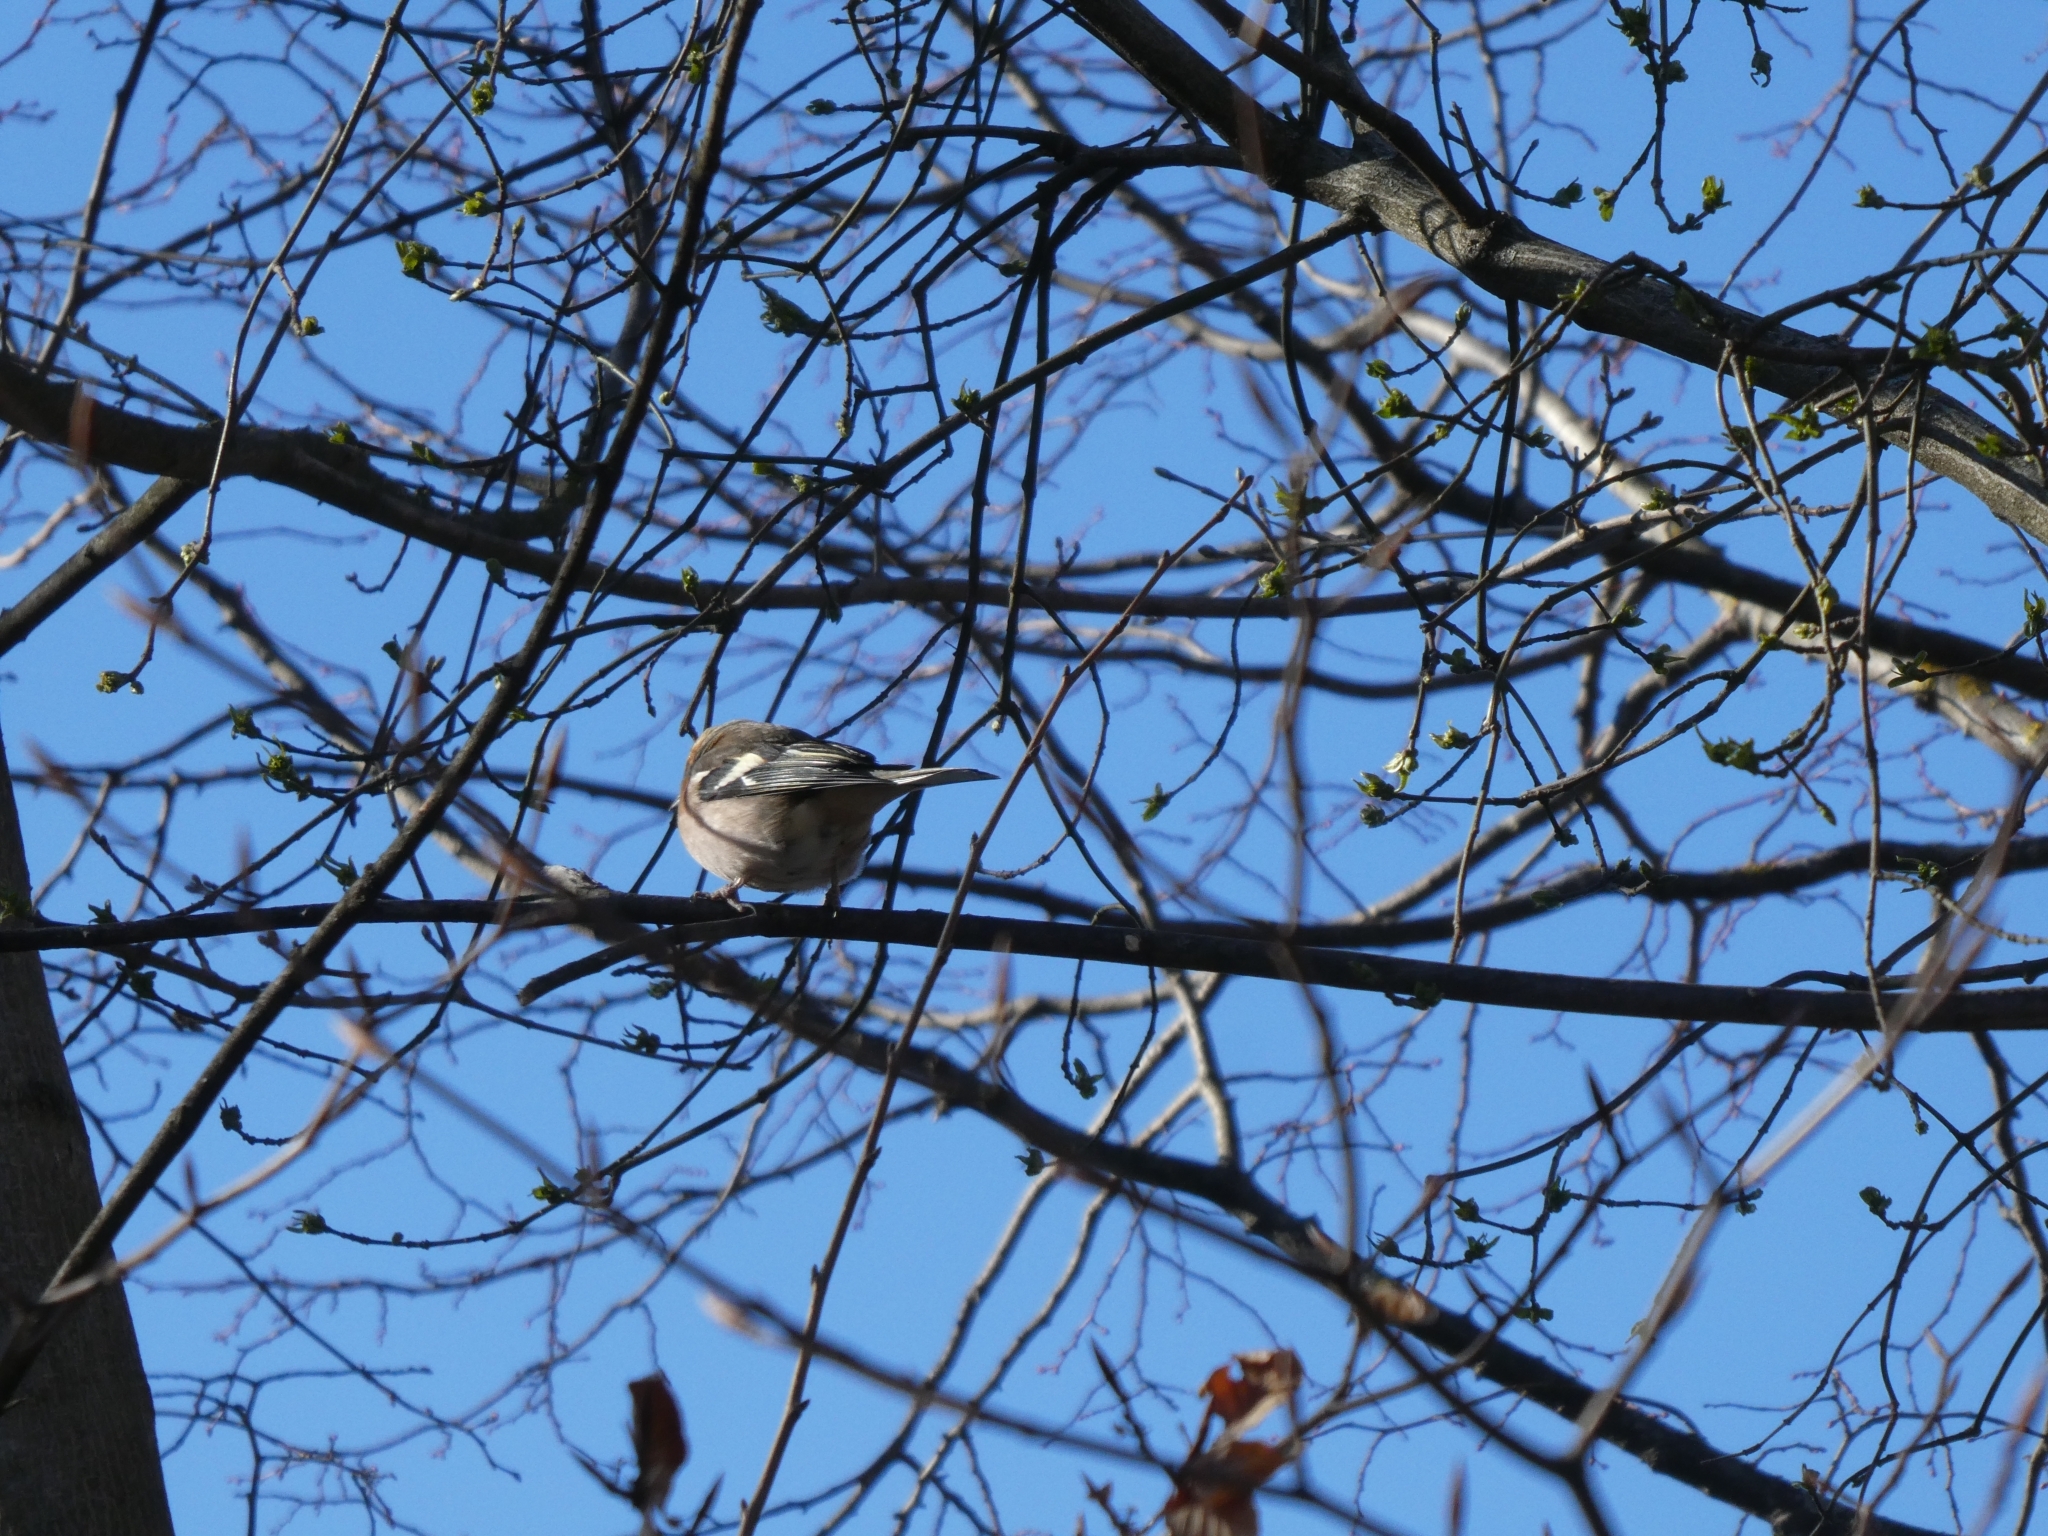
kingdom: Animalia
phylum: Chordata
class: Aves
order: Passeriformes
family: Fringillidae
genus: Fringilla
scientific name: Fringilla coelebs
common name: Common chaffinch
